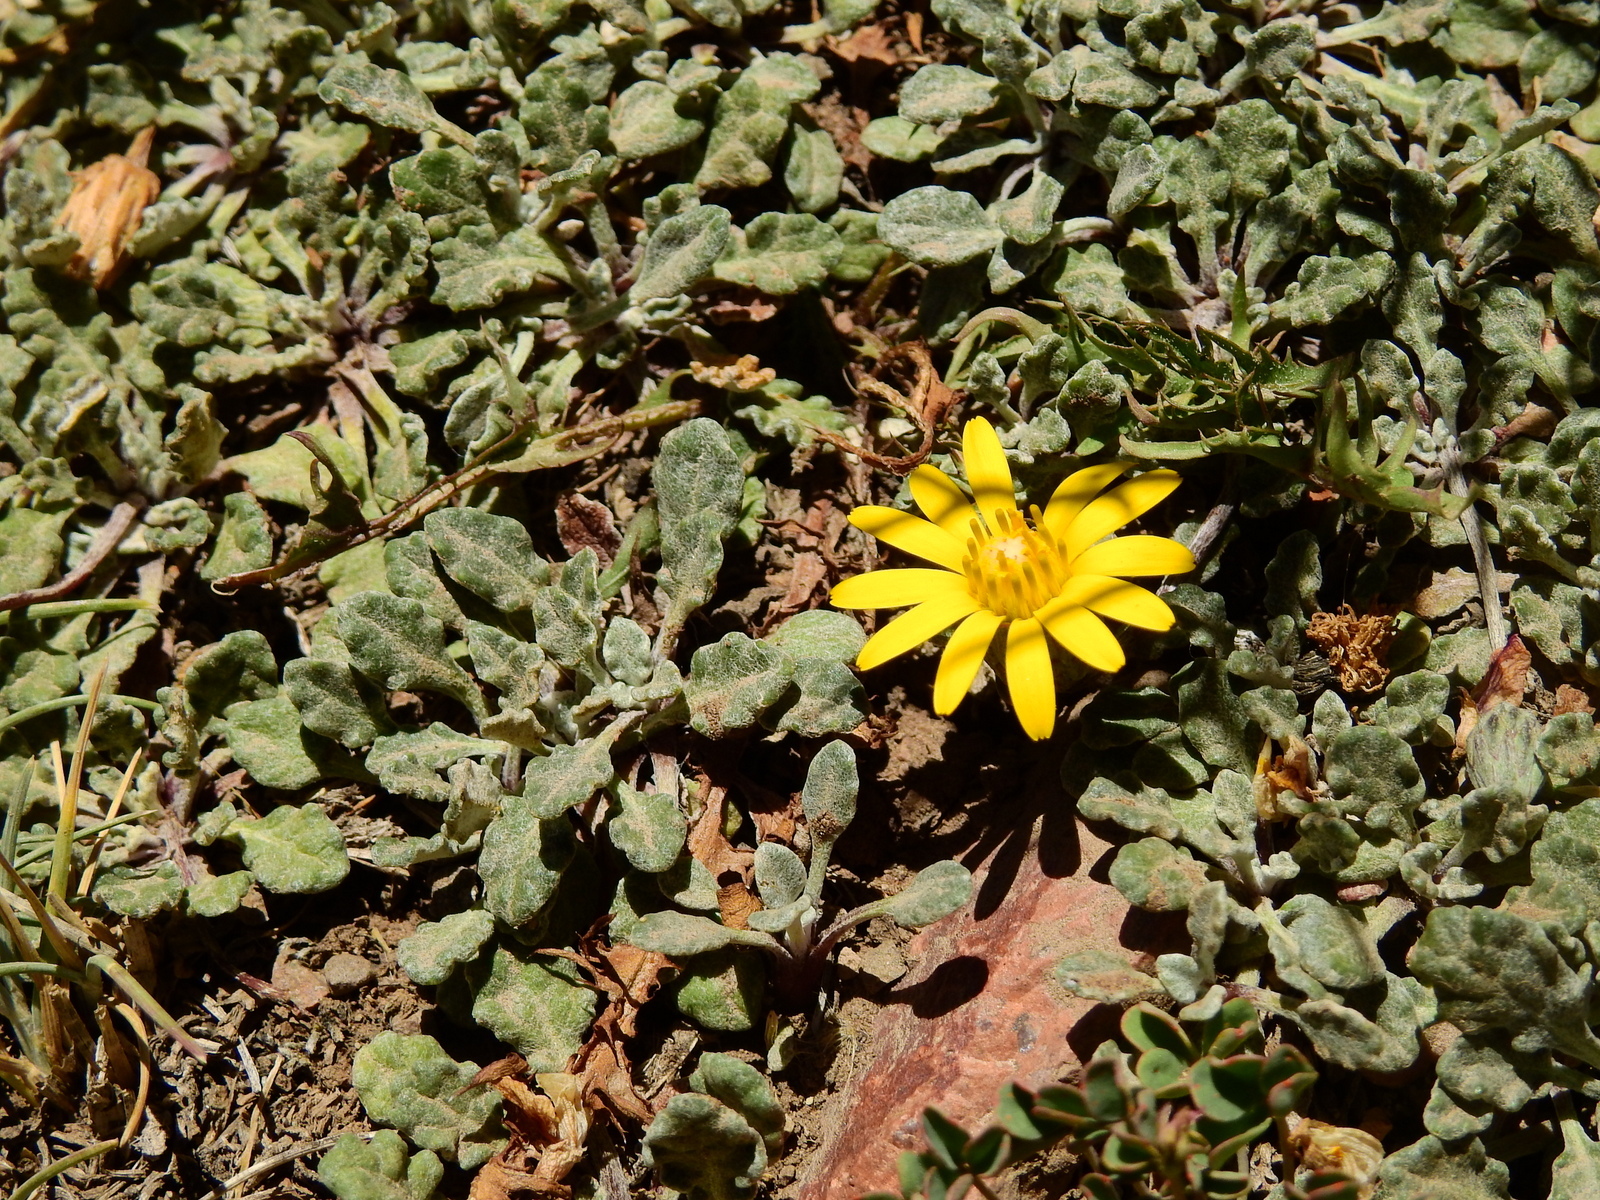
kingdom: Plantae
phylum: Tracheophyta
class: Magnoliopsida
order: Asterales
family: Asteraceae
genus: Trichocline
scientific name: Trichocline dealbata
